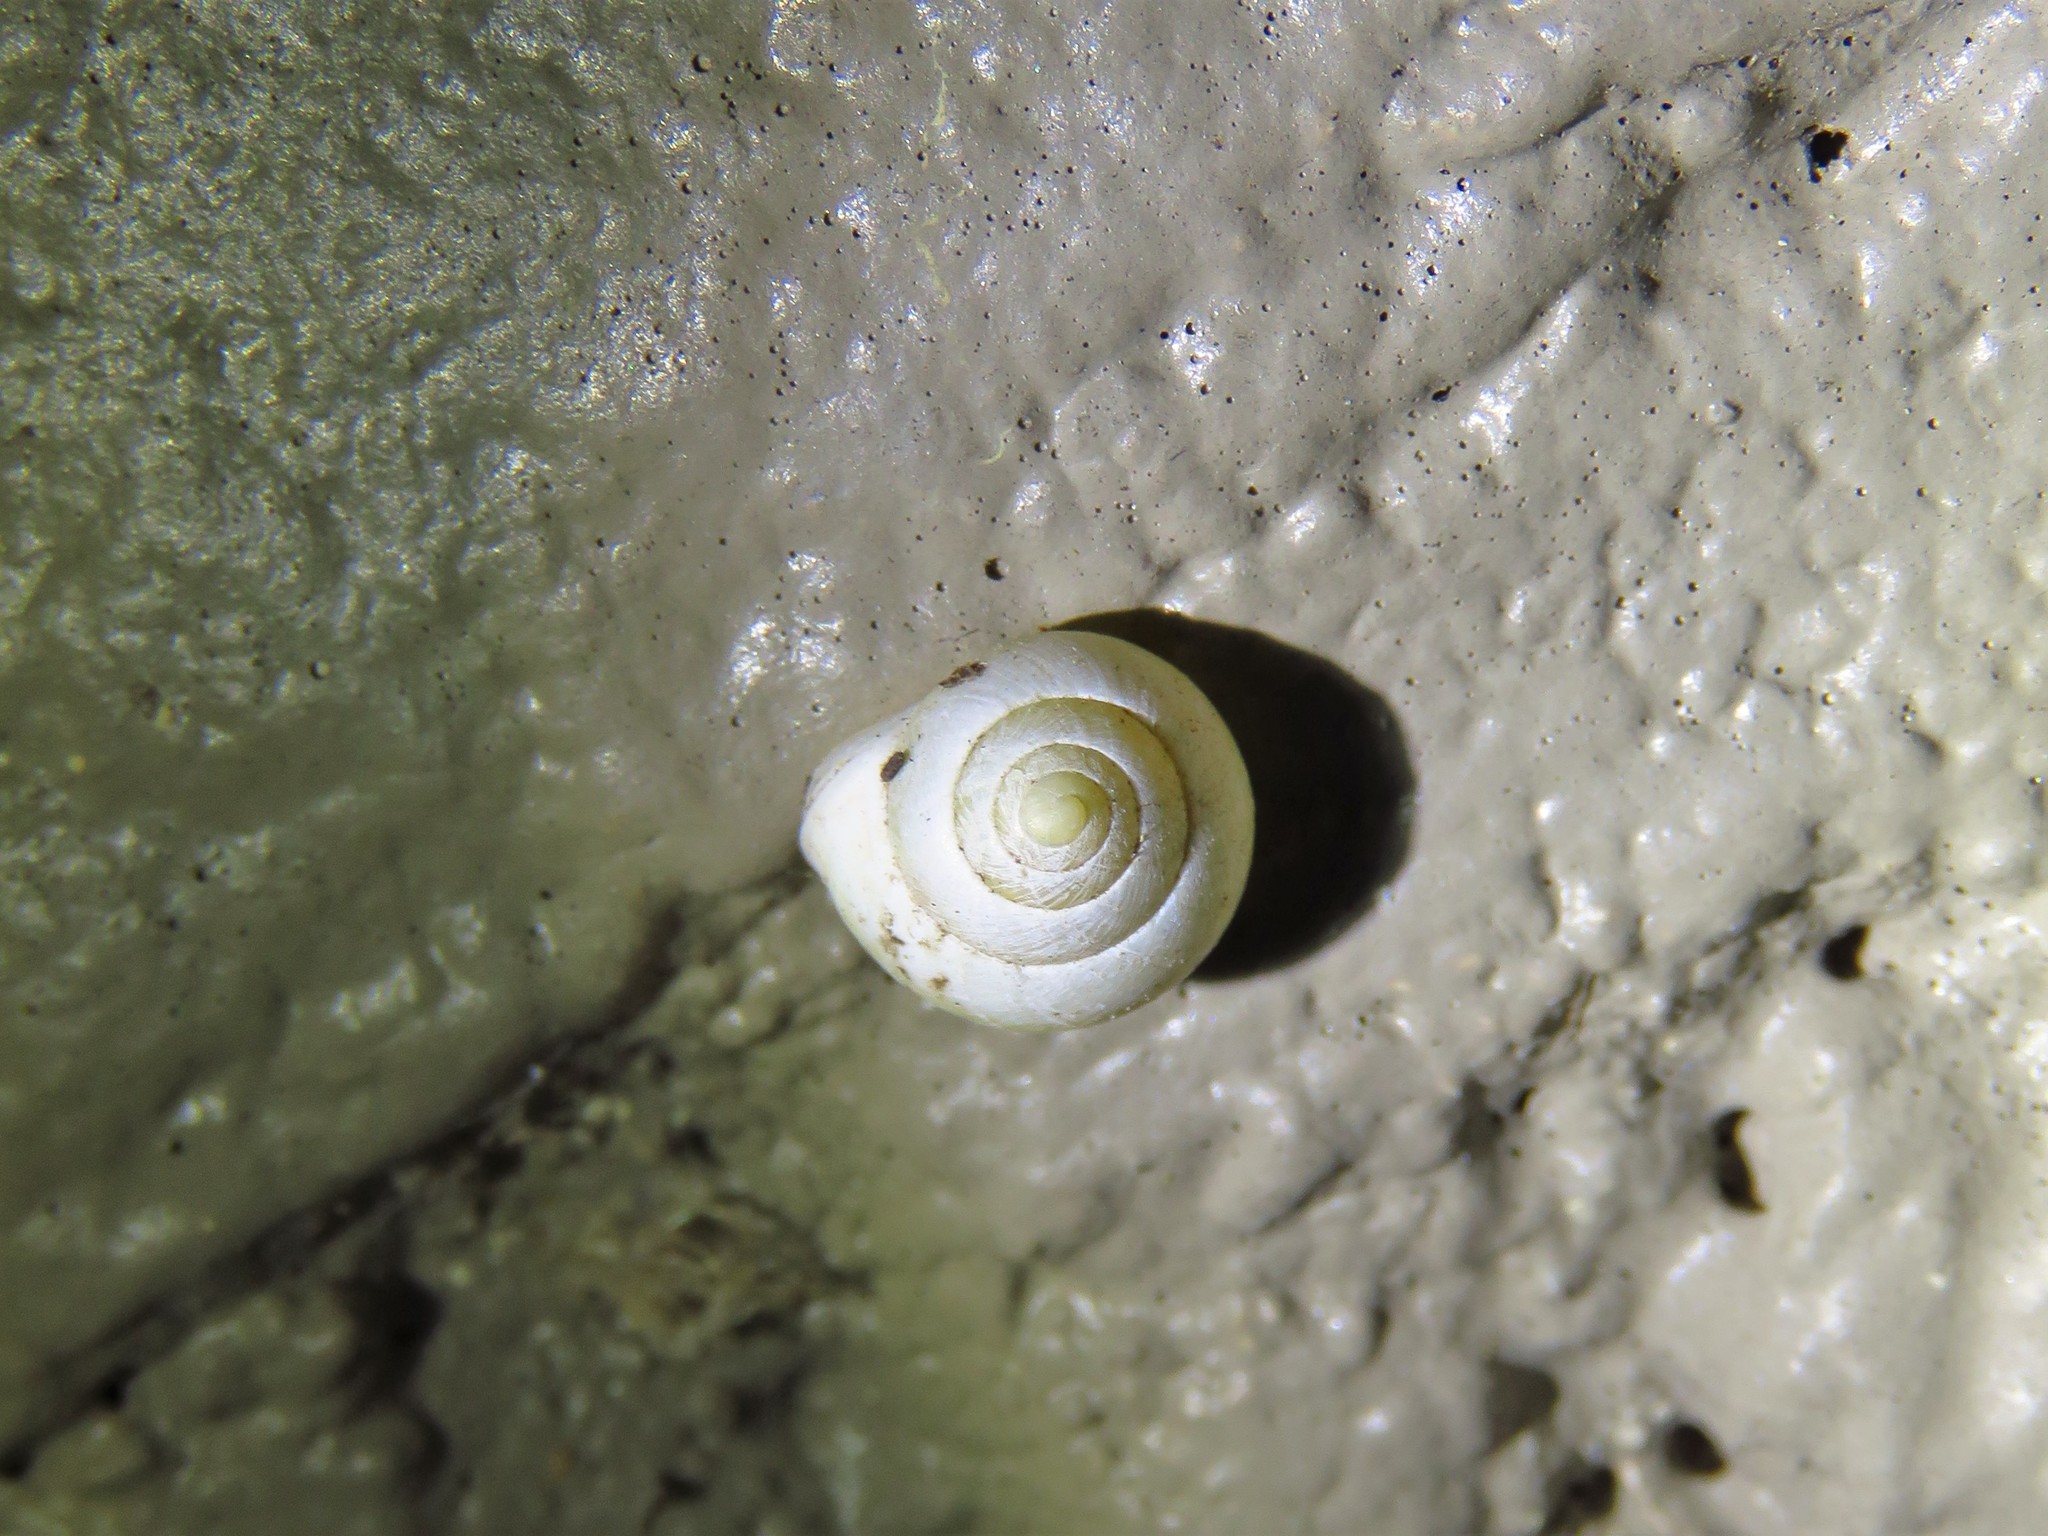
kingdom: Animalia
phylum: Mollusca
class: Gastropoda
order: Cycloneritida
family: Helicinidae
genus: Helicina
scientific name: Helicina orbiculata
